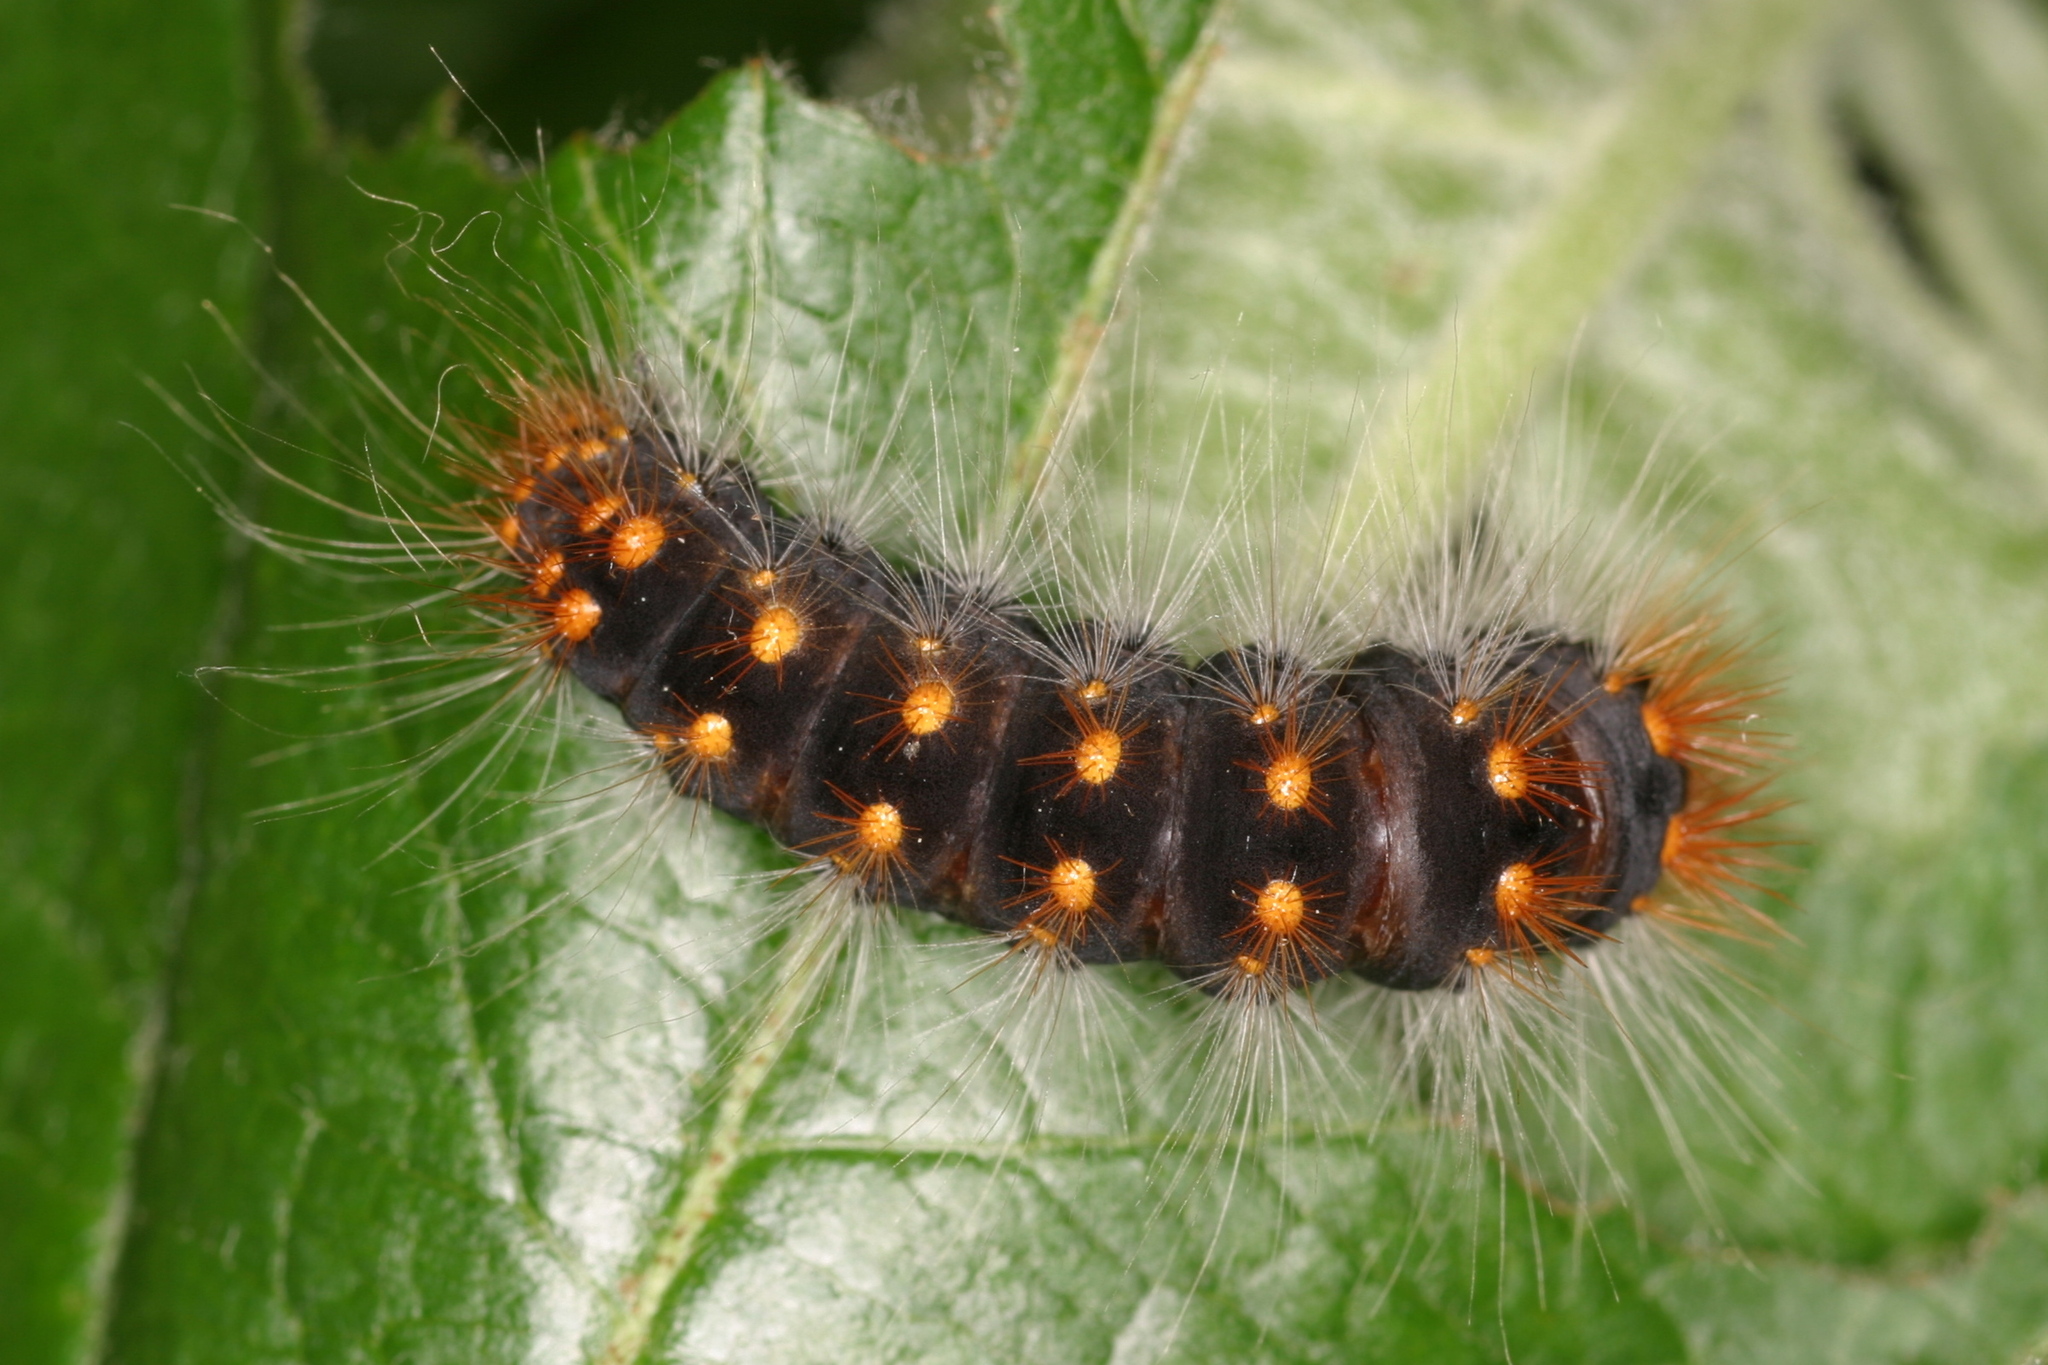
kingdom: Animalia
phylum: Arthropoda
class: Insecta
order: Lepidoptera
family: Noctuidae
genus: Acronicta
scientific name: Acronicta auricoma
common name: Scarce dagger
